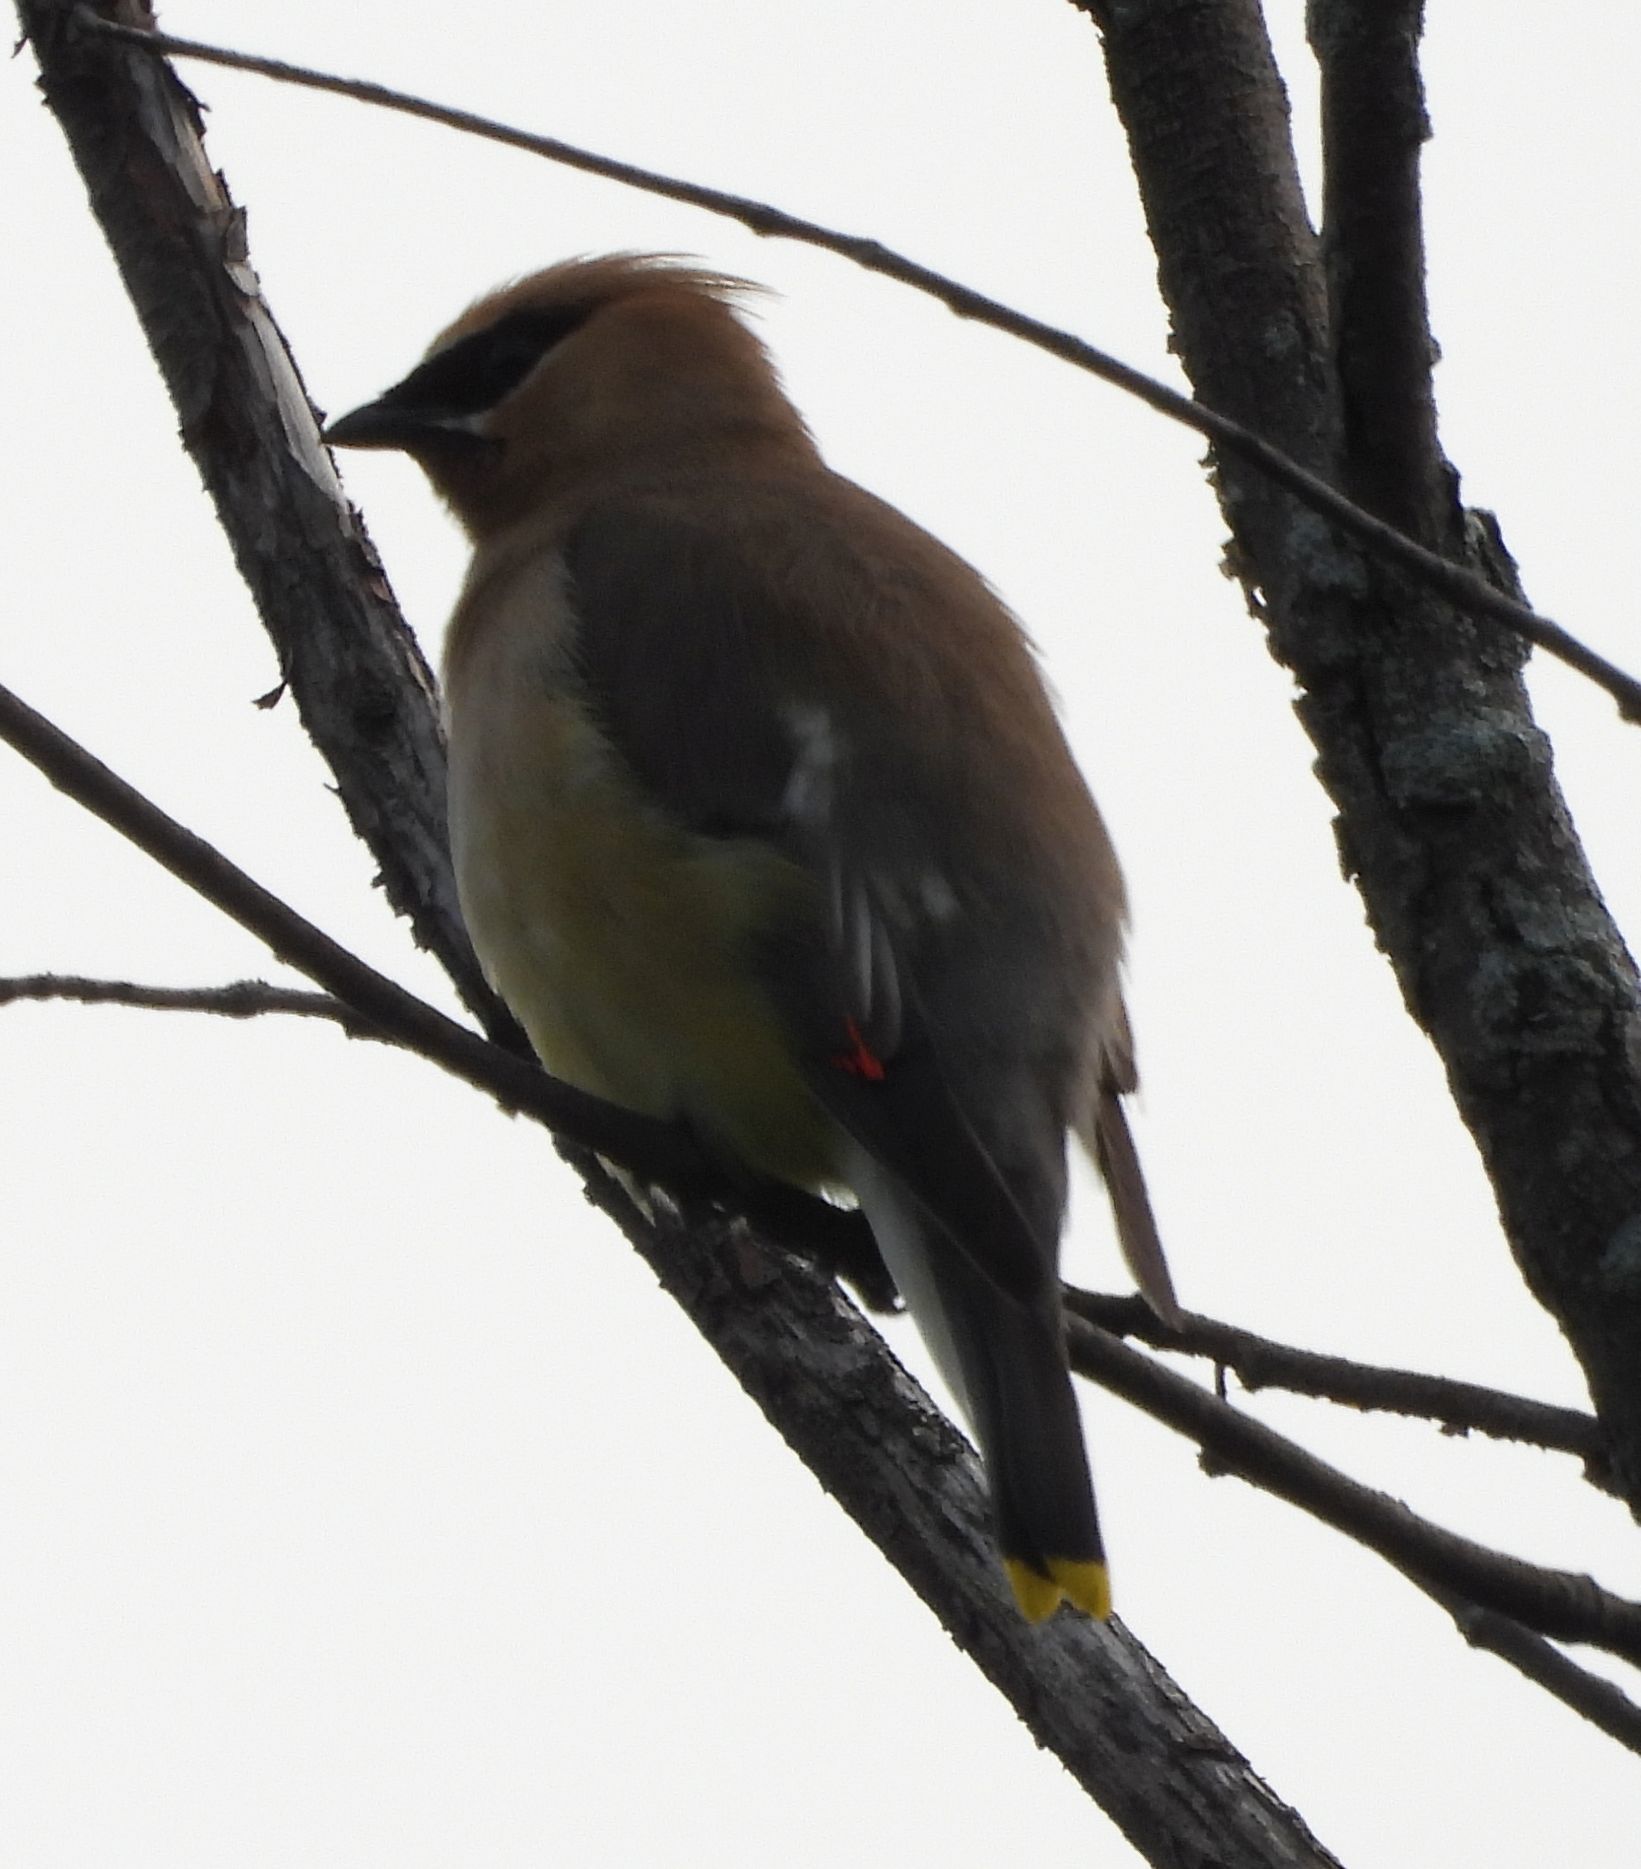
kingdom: Animalia
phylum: Chordata
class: Aves
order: Passeriformes
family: Bombycillidae
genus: Bombycilla
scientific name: Bombycilla cedrorum
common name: Cedar waxwing
